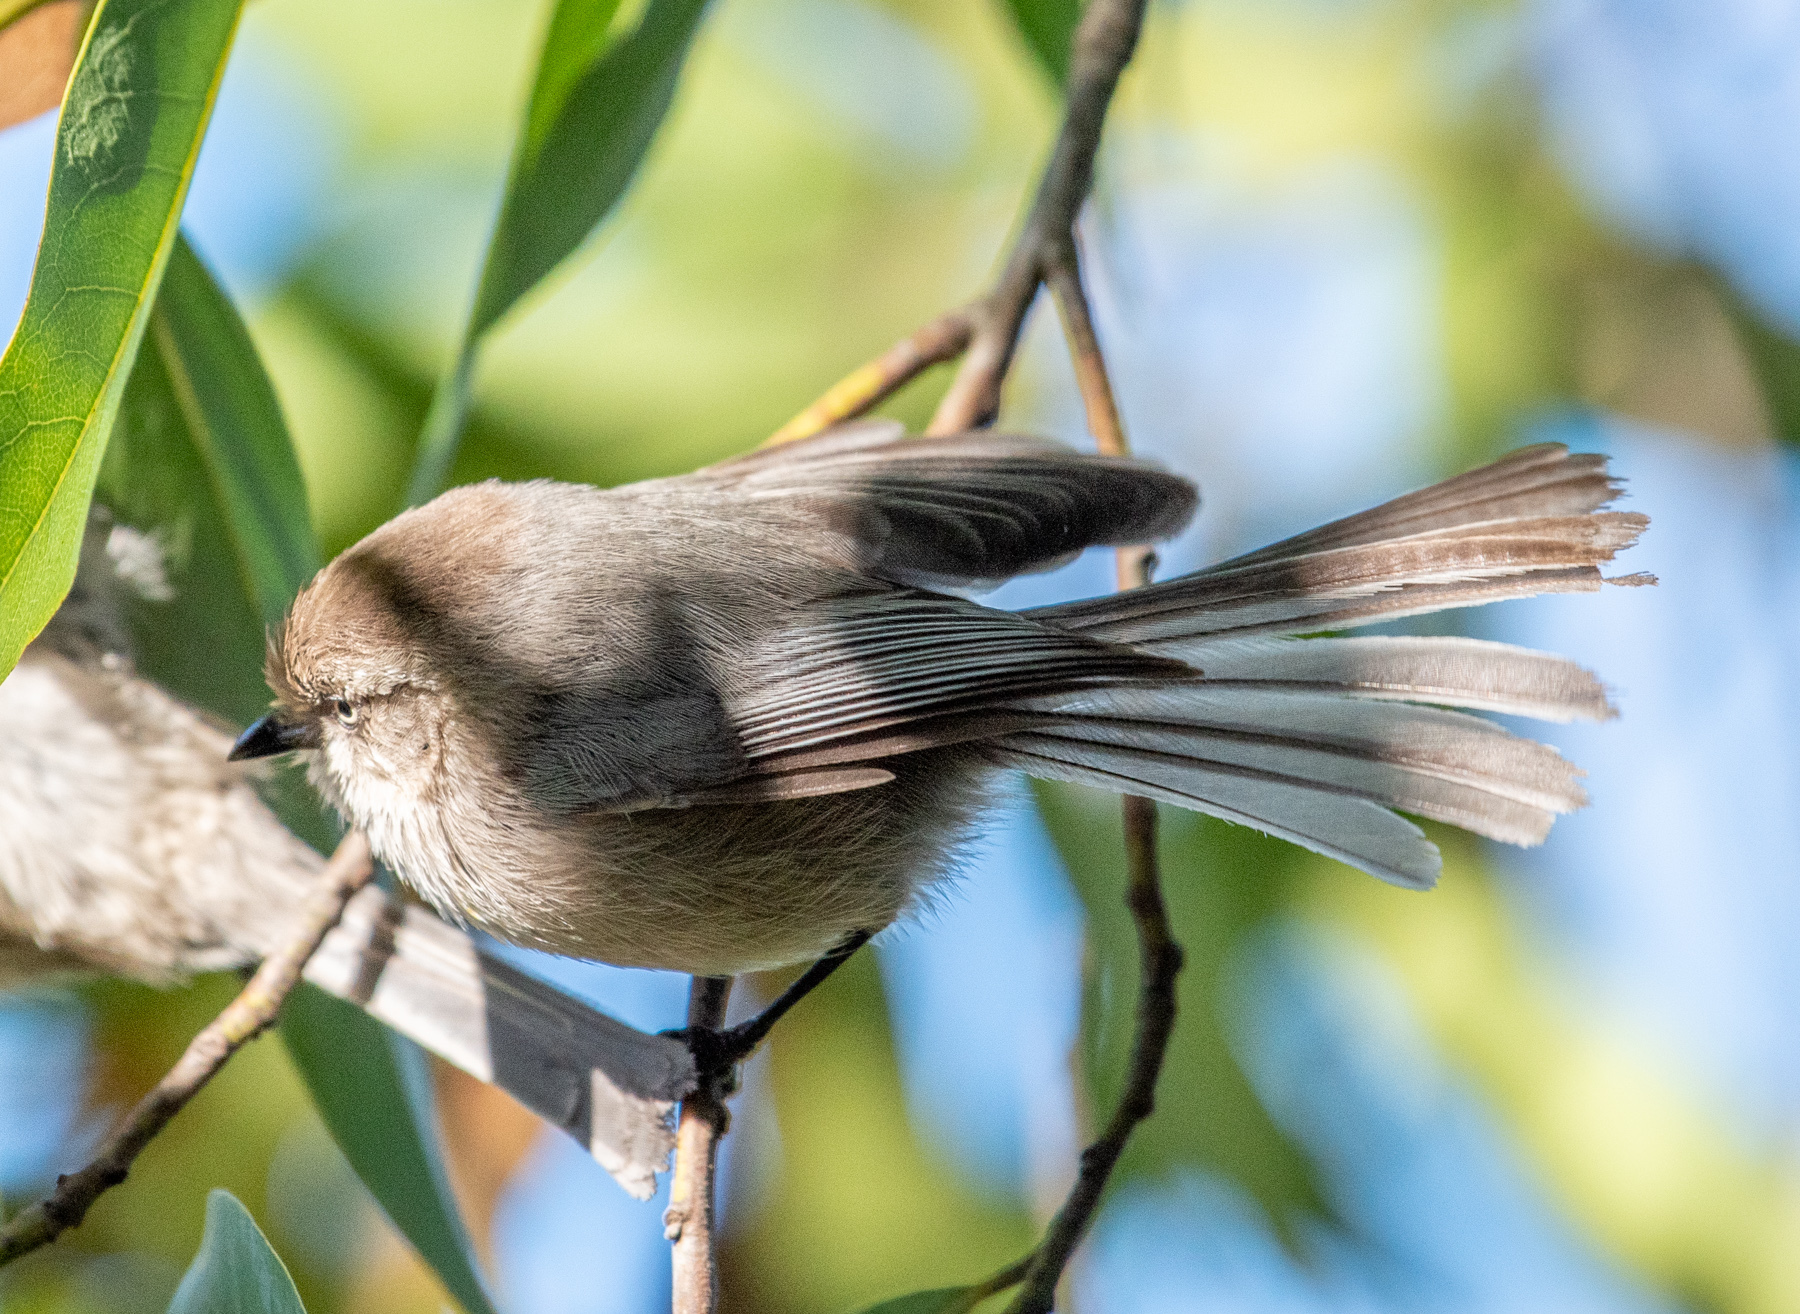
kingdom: Animalia
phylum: Chordata
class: Aves
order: Passeriformes
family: Aegithalidae
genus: Psaltriparus
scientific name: Psaltriparus minimus
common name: American bushtit
